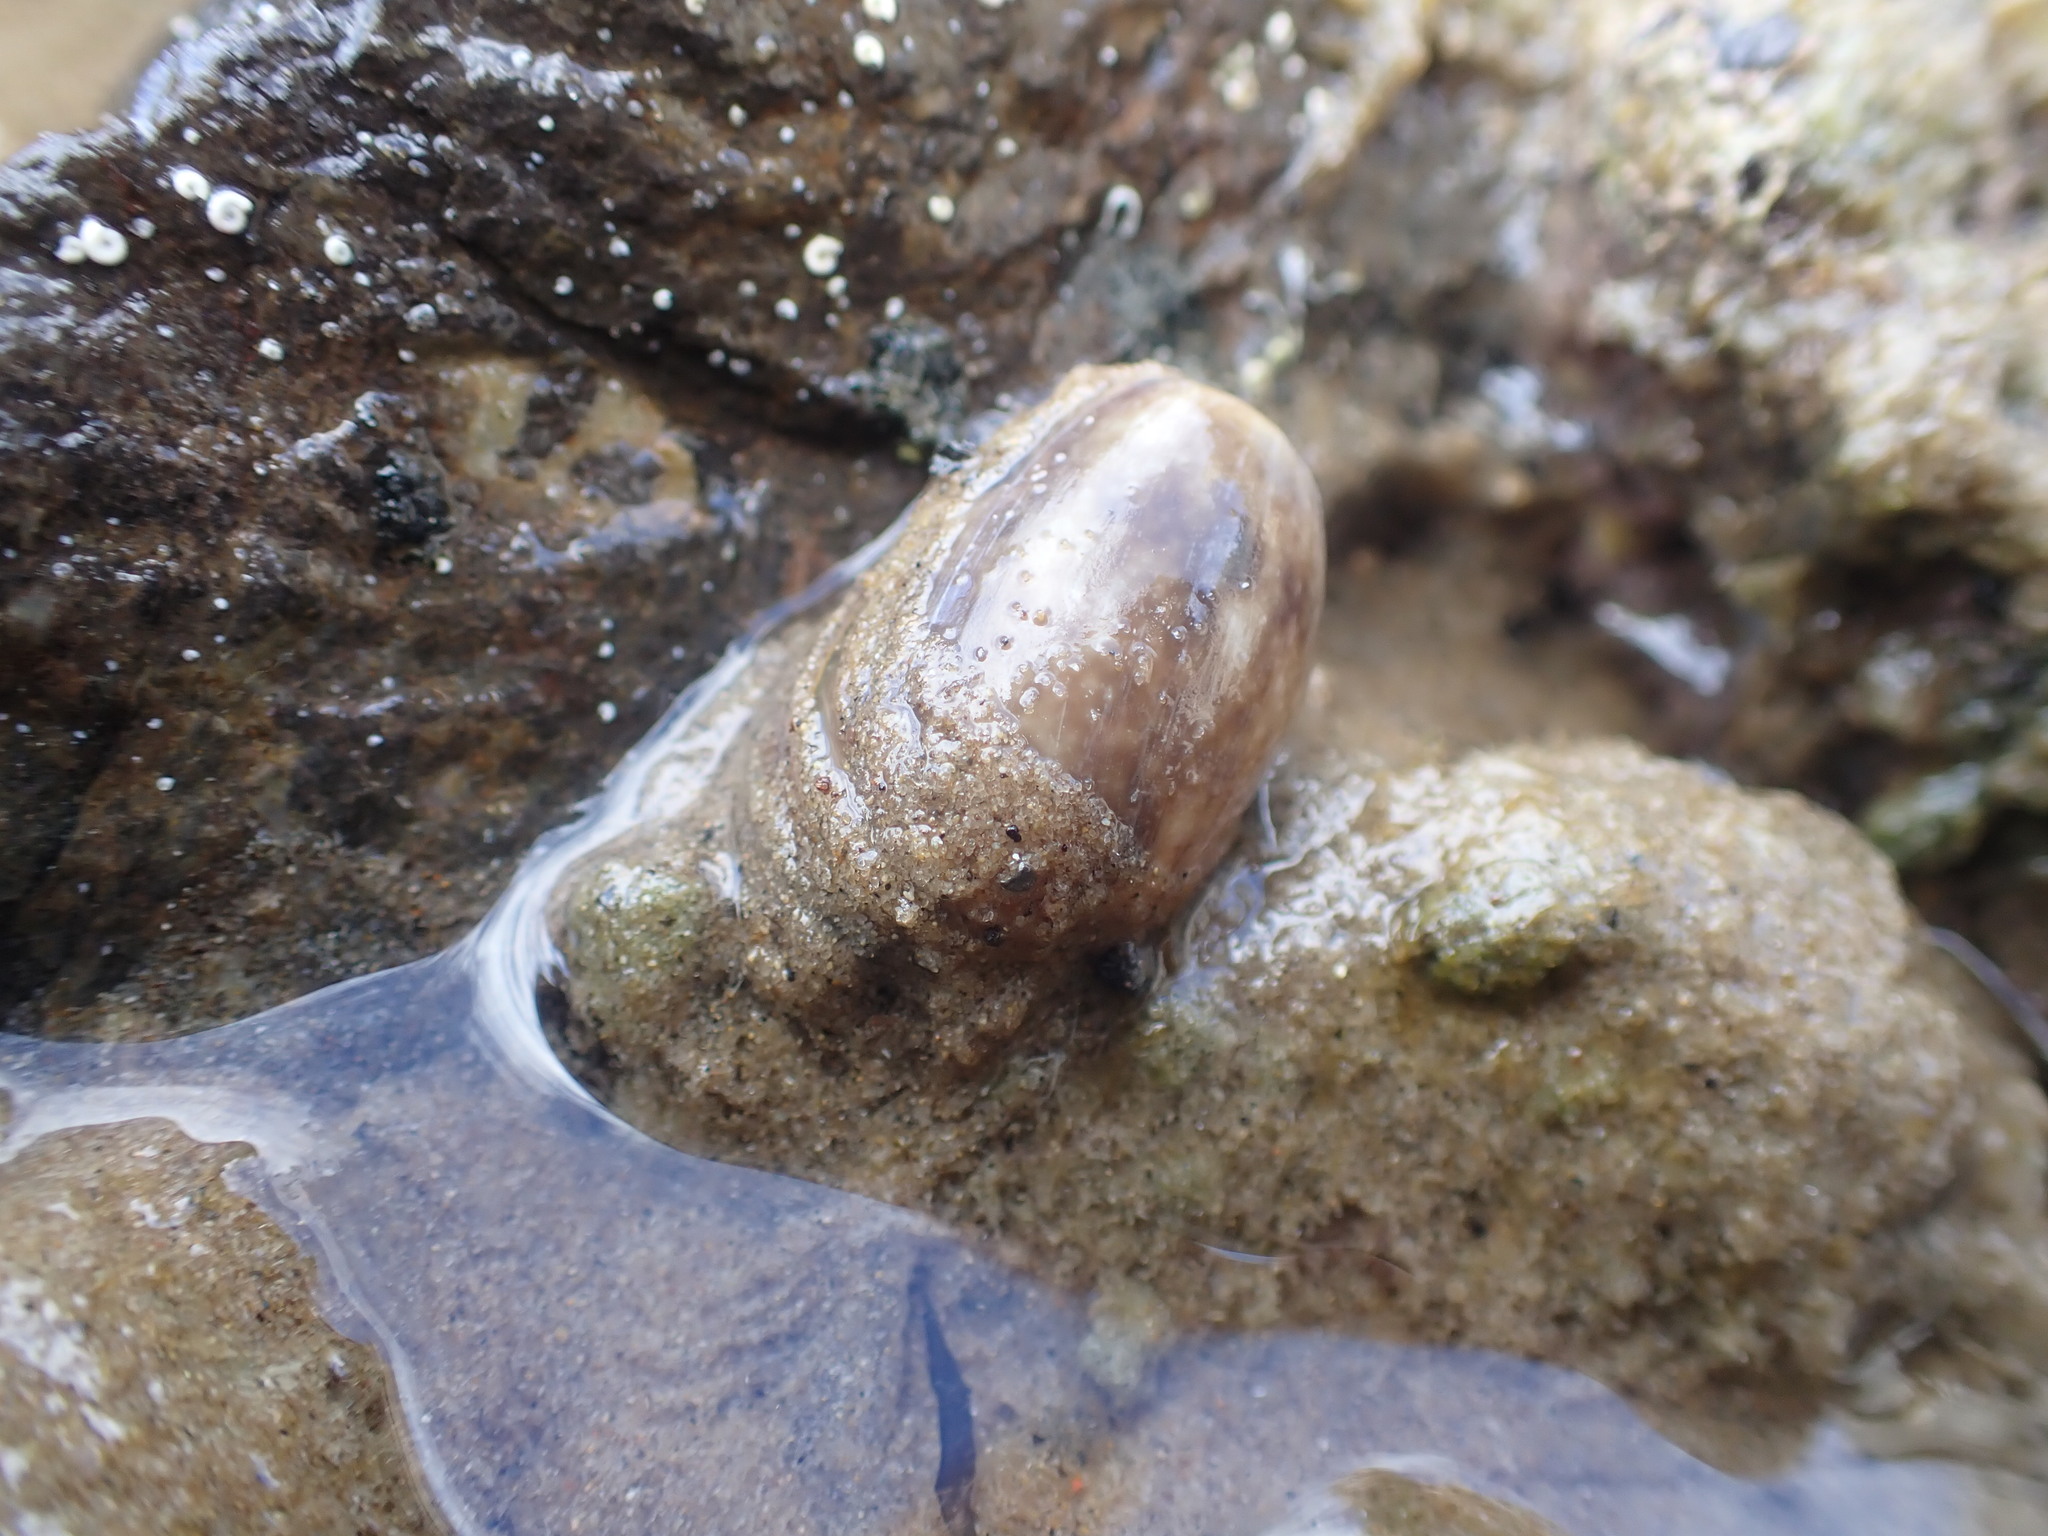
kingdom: Animalia
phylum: Mollusca
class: Gastropoda
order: Cephalaspidea
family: Bullidae
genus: Bulla
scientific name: Bulla quoyii
